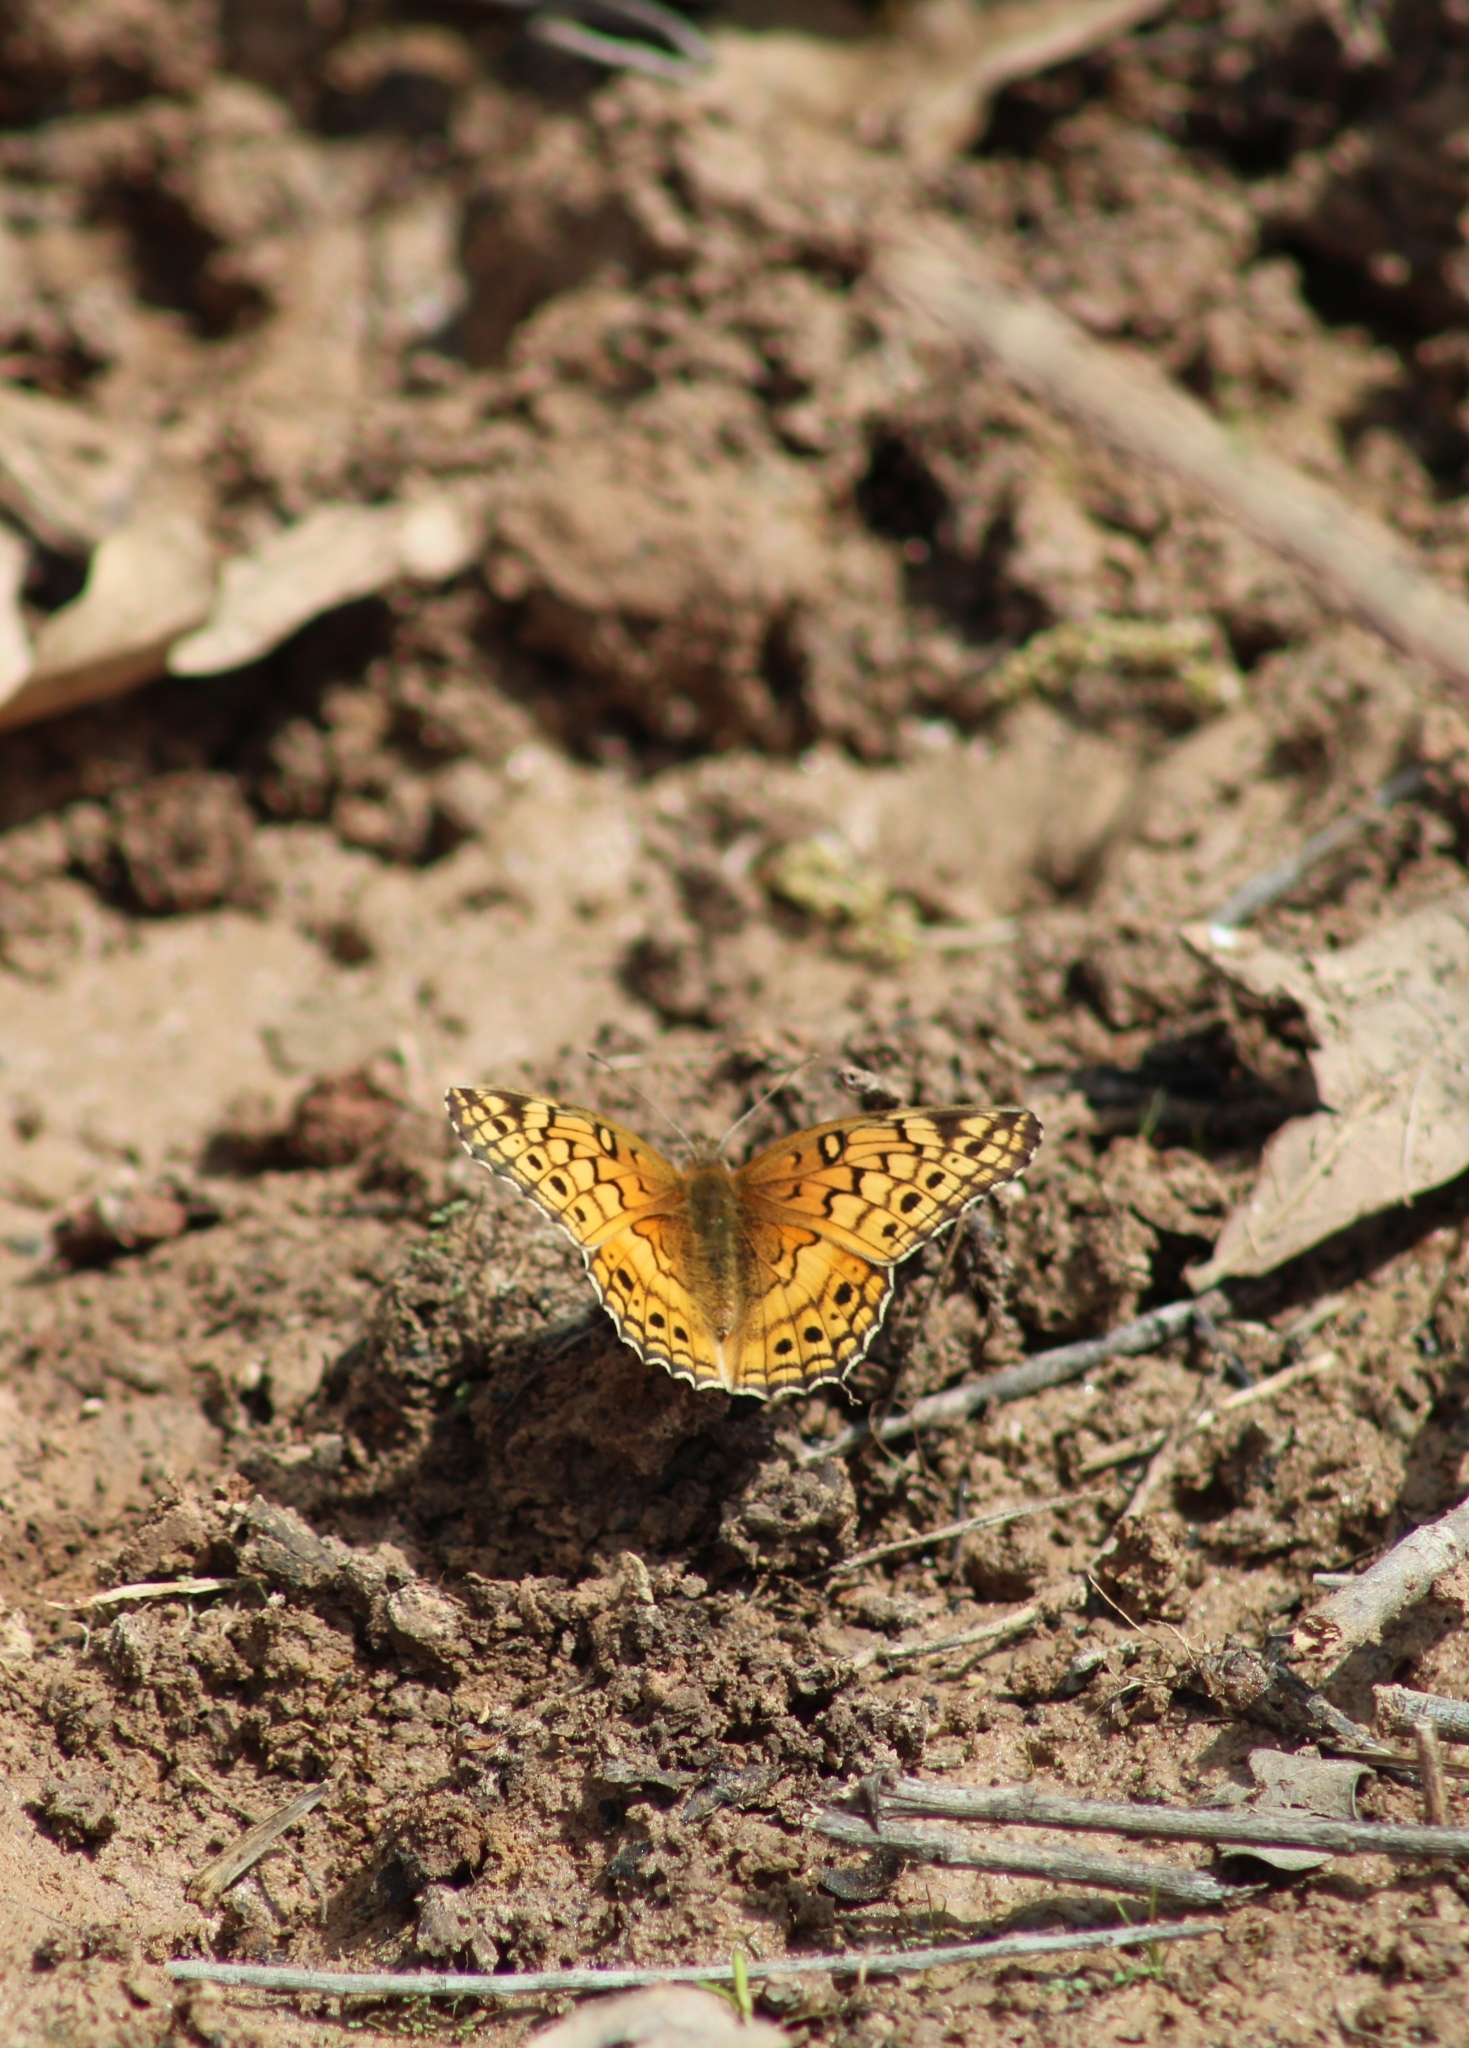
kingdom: Animalia
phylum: Arthropoda
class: Insecta
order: Lepidoptera
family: Nymphalidae
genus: Euptoieta
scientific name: Euptoieta claudia
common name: Variegated fritillary
